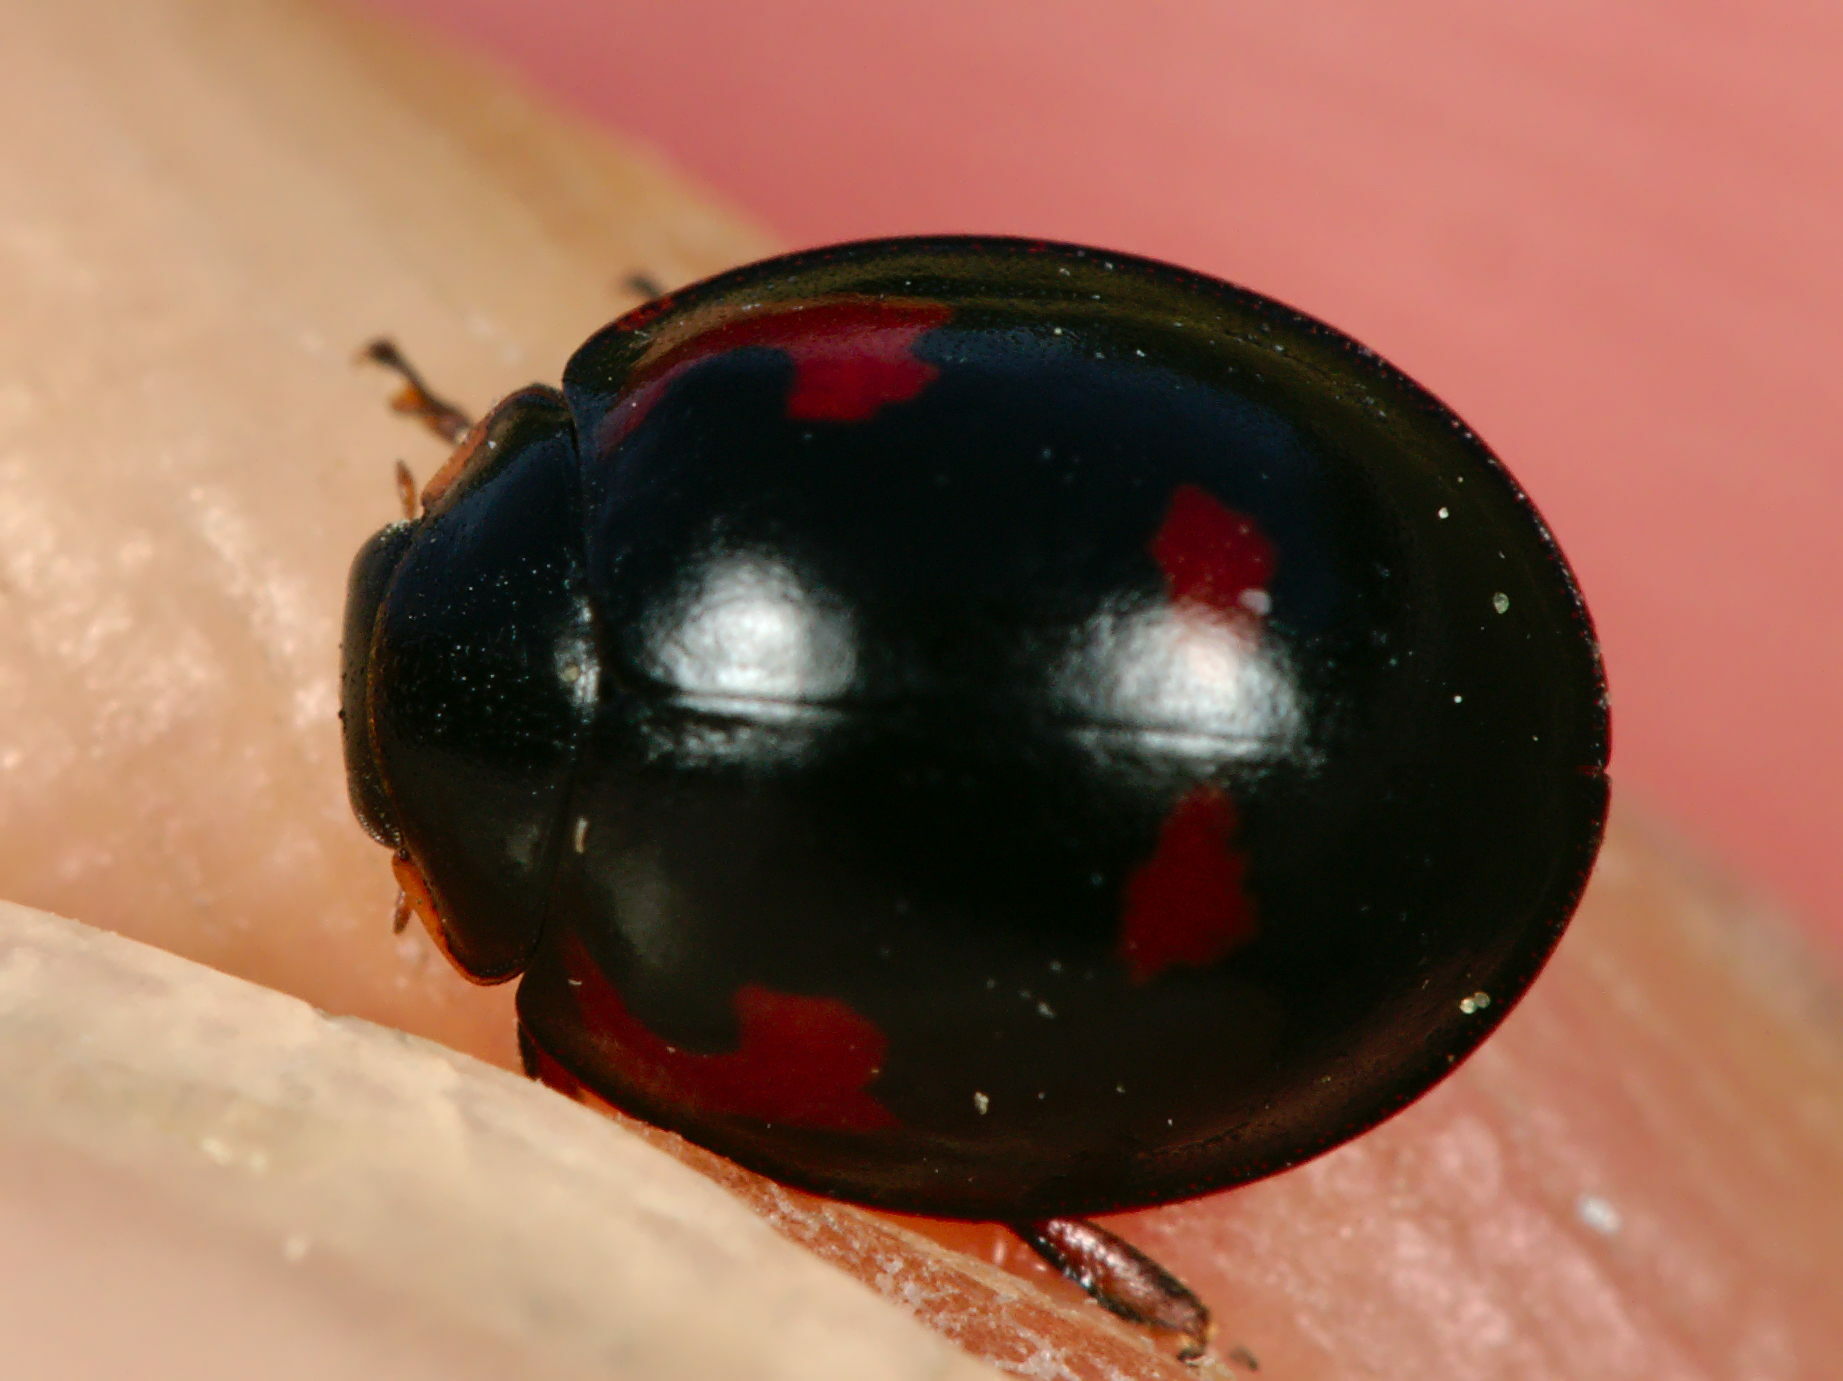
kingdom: Animalia
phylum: Arthropoda
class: Insecta
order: Coleoptera
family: Coccinellidae
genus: Brumus
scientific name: Brumus quadripustulatus
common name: Ladybird beetle
